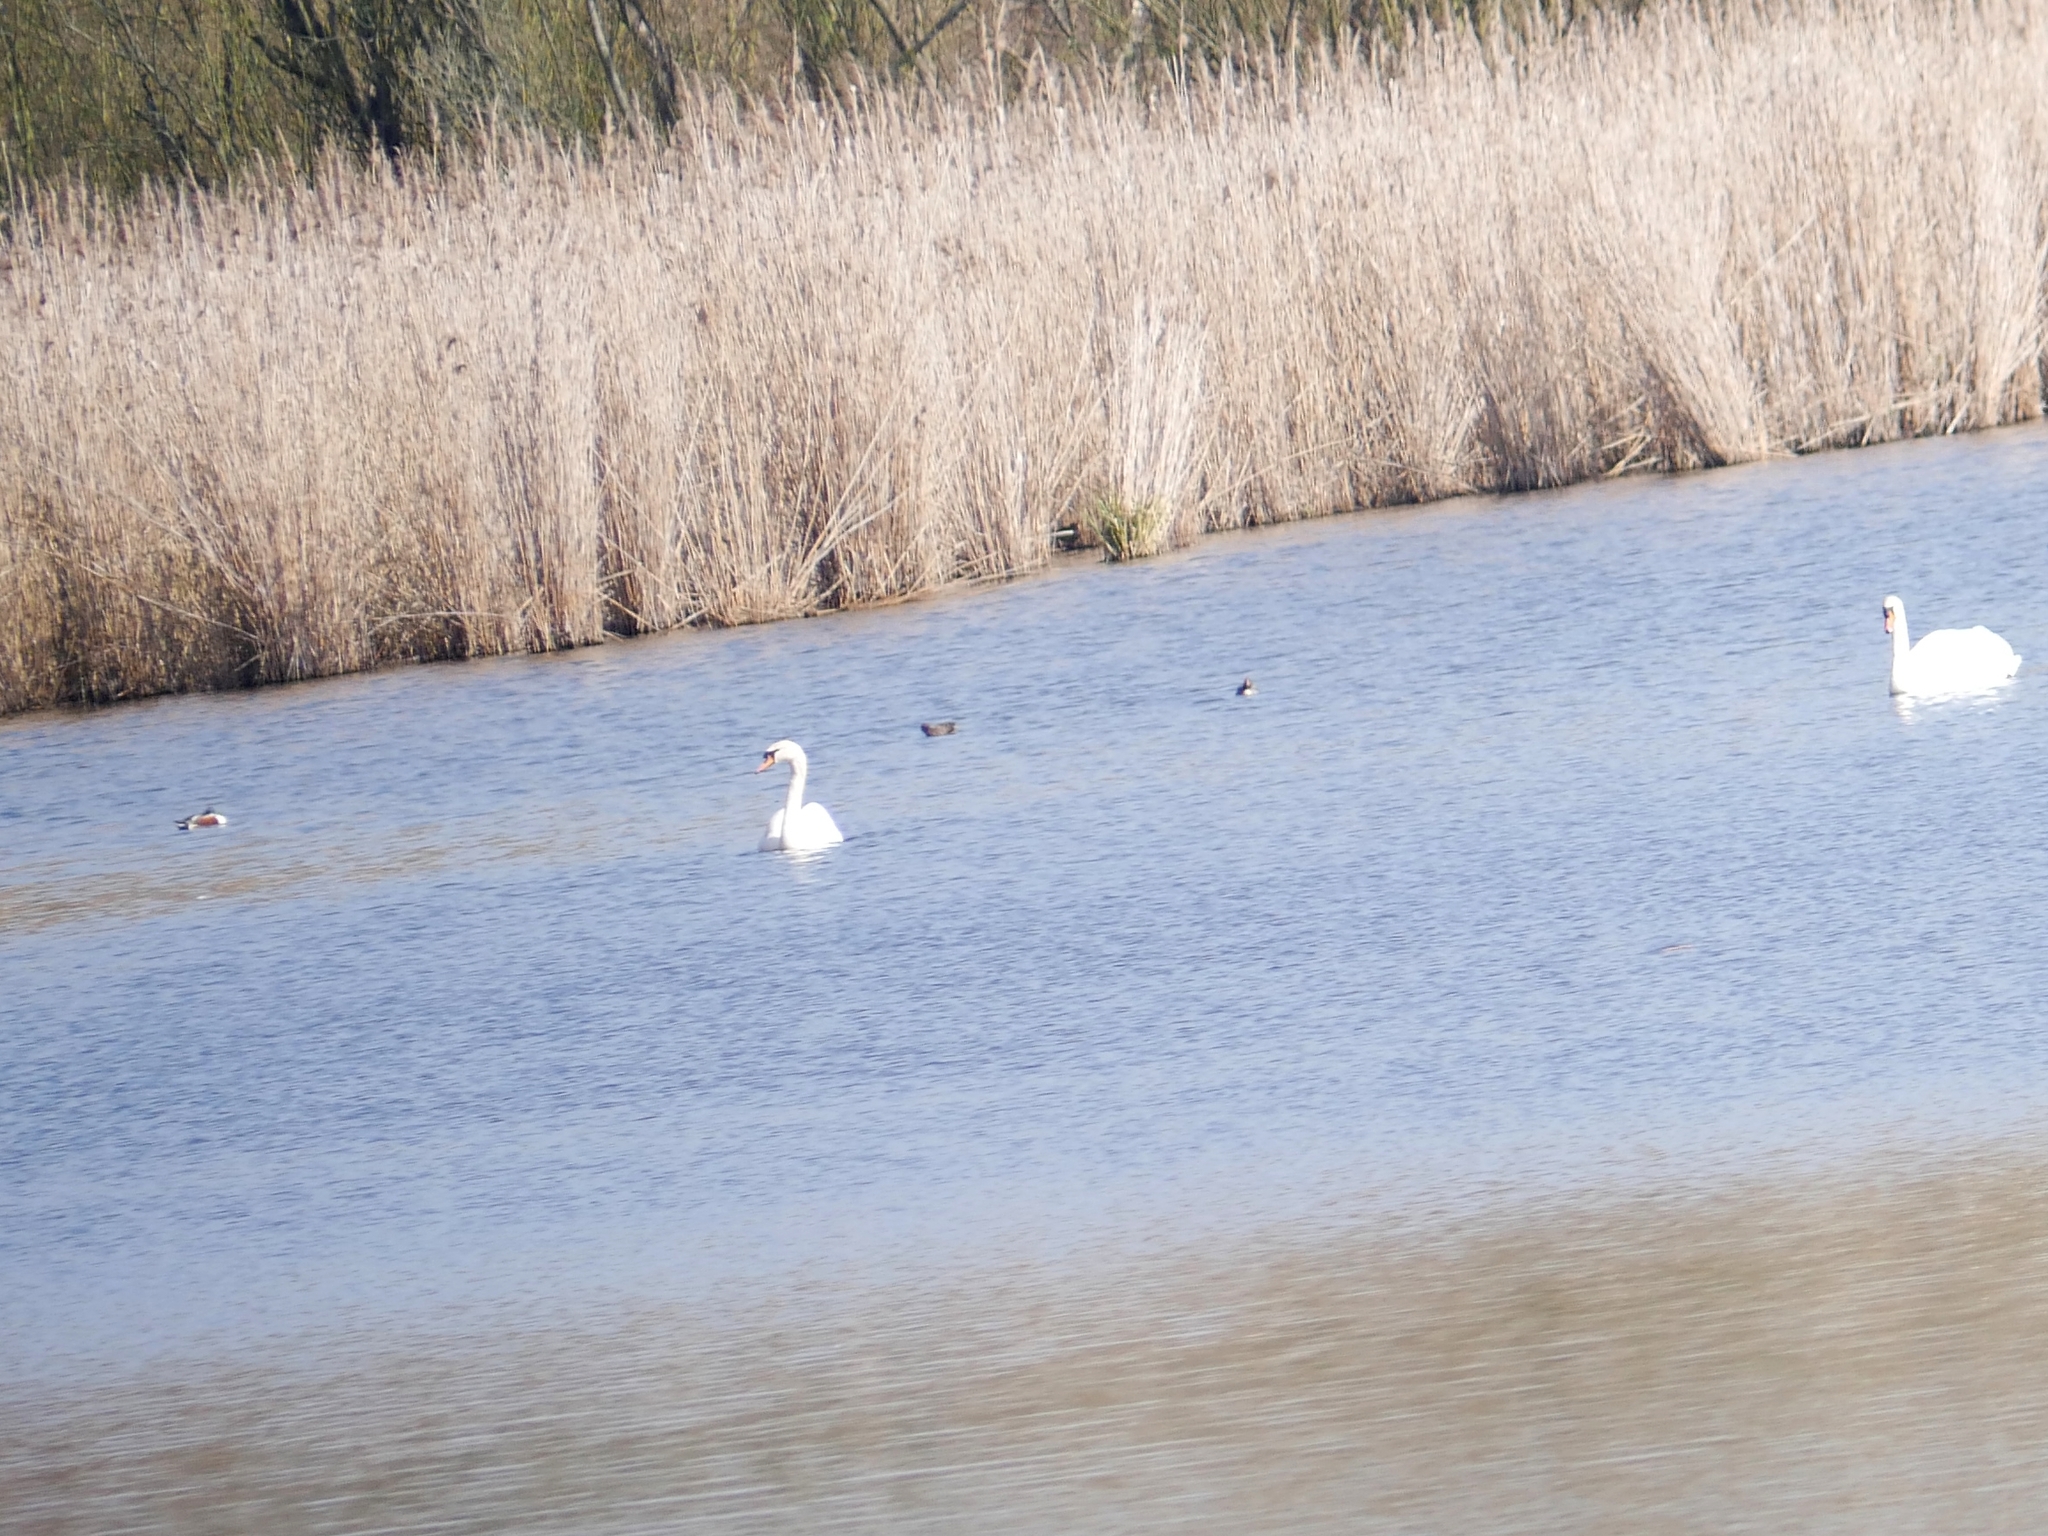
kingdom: Animalia
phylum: Chordata
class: Aves
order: Anseriformes
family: Anatidae
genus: Cygnus
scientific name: Cygnus olor
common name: Mute swan
